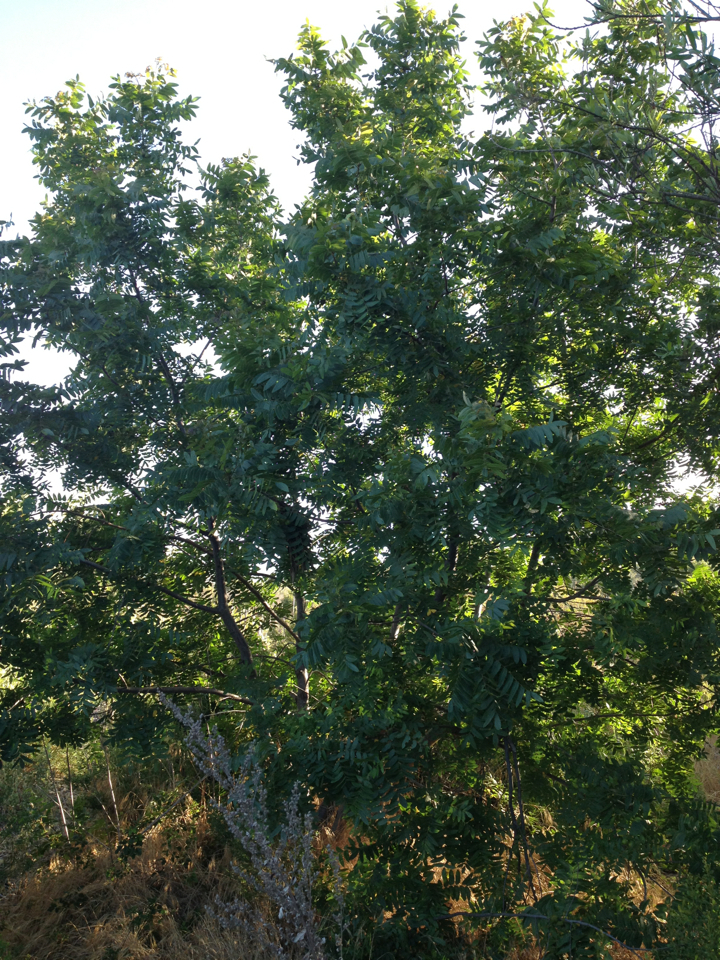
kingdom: Plantae
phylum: Tracheophyta
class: Magnoliopsida
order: Fagales
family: Juglandaceae
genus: Juglans
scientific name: Juglans californica
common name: Southern california black walnut
